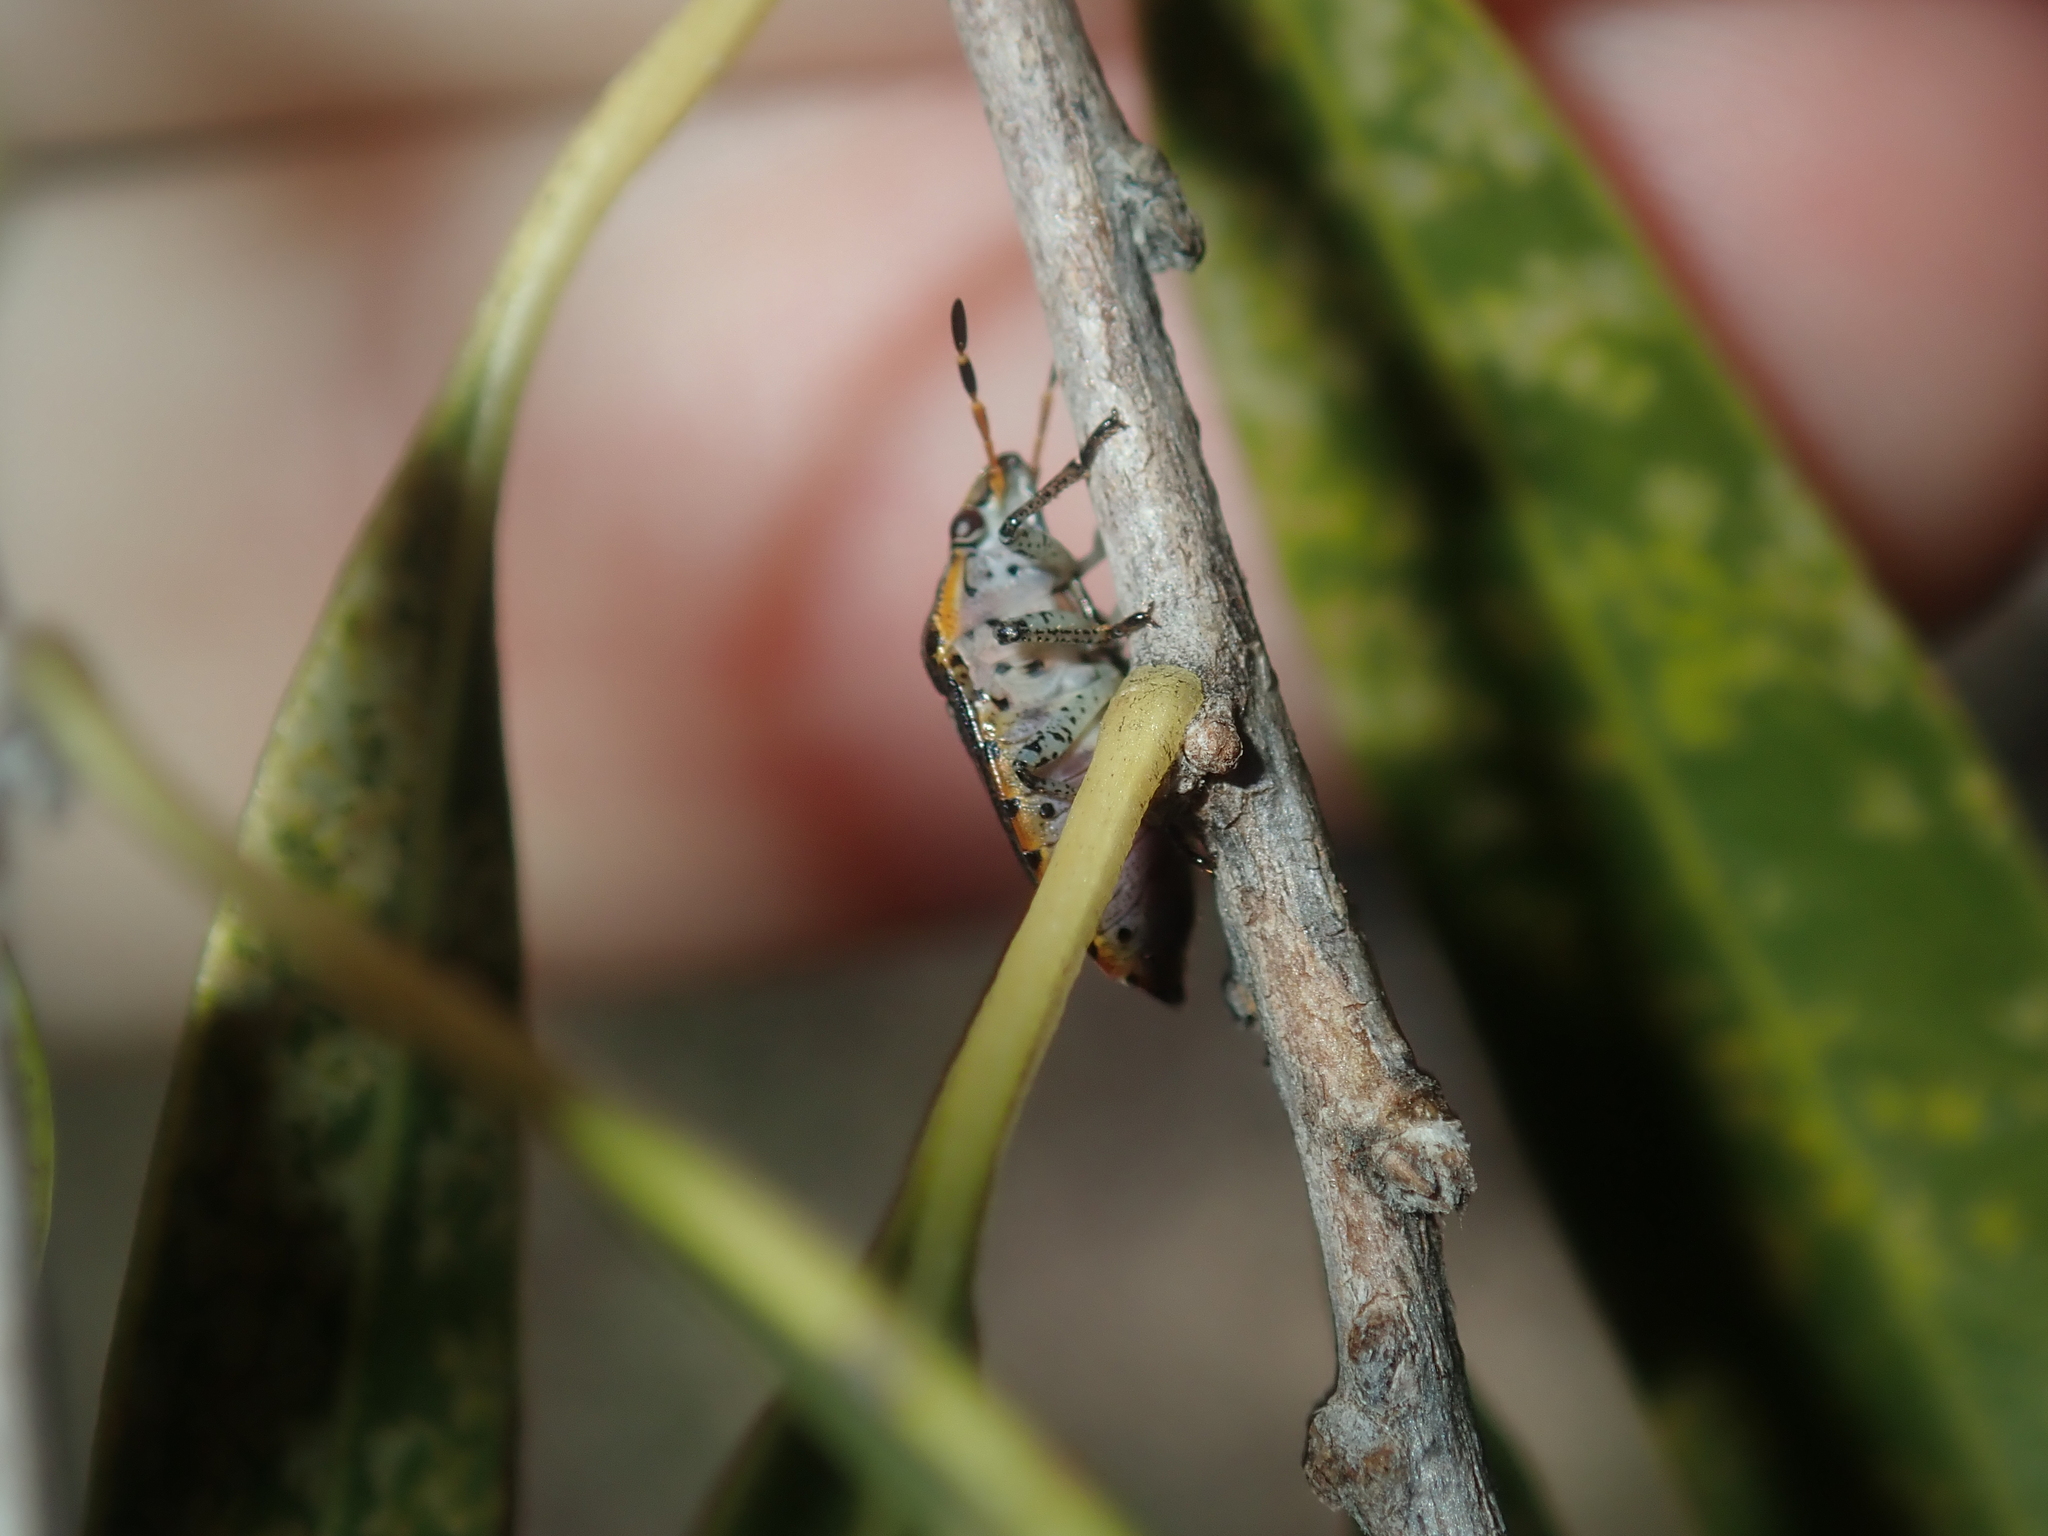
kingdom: Animalia
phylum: Arthropoda
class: Insecta
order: Hemiptera
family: Pentatomidae
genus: Pseudapines
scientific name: Pseudapines
